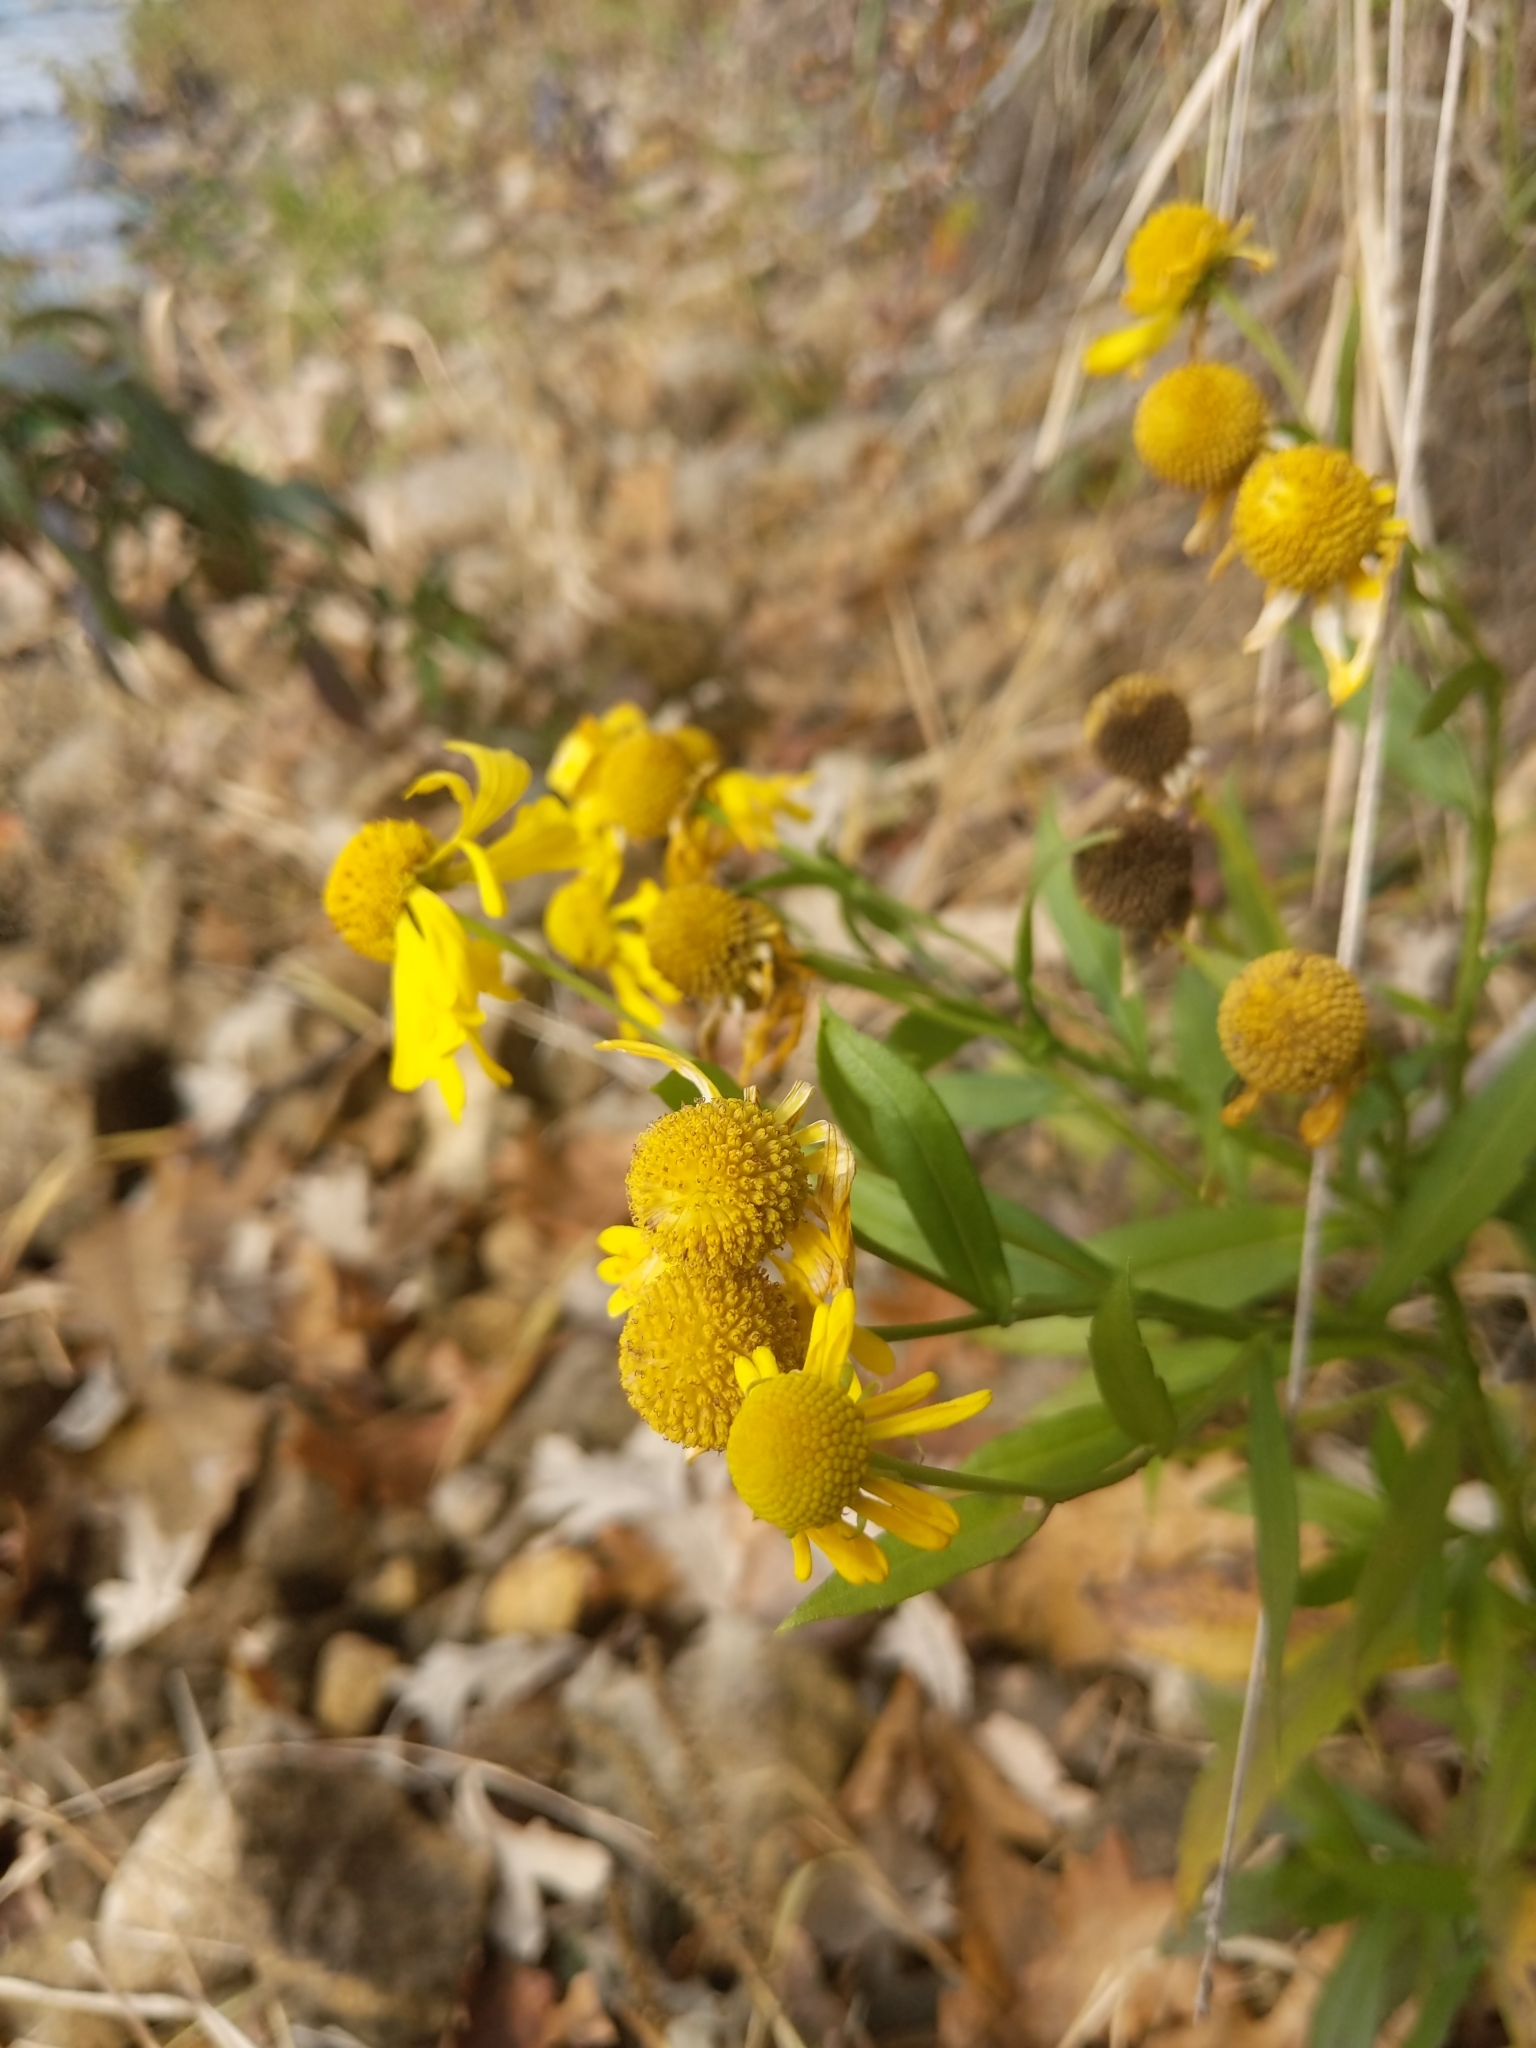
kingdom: Plantae
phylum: Tracheophyta
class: Magnoliopsida
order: Asterales
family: Asteraceae
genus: Helenium
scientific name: Helenium autumnale
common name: Sneezeweed
